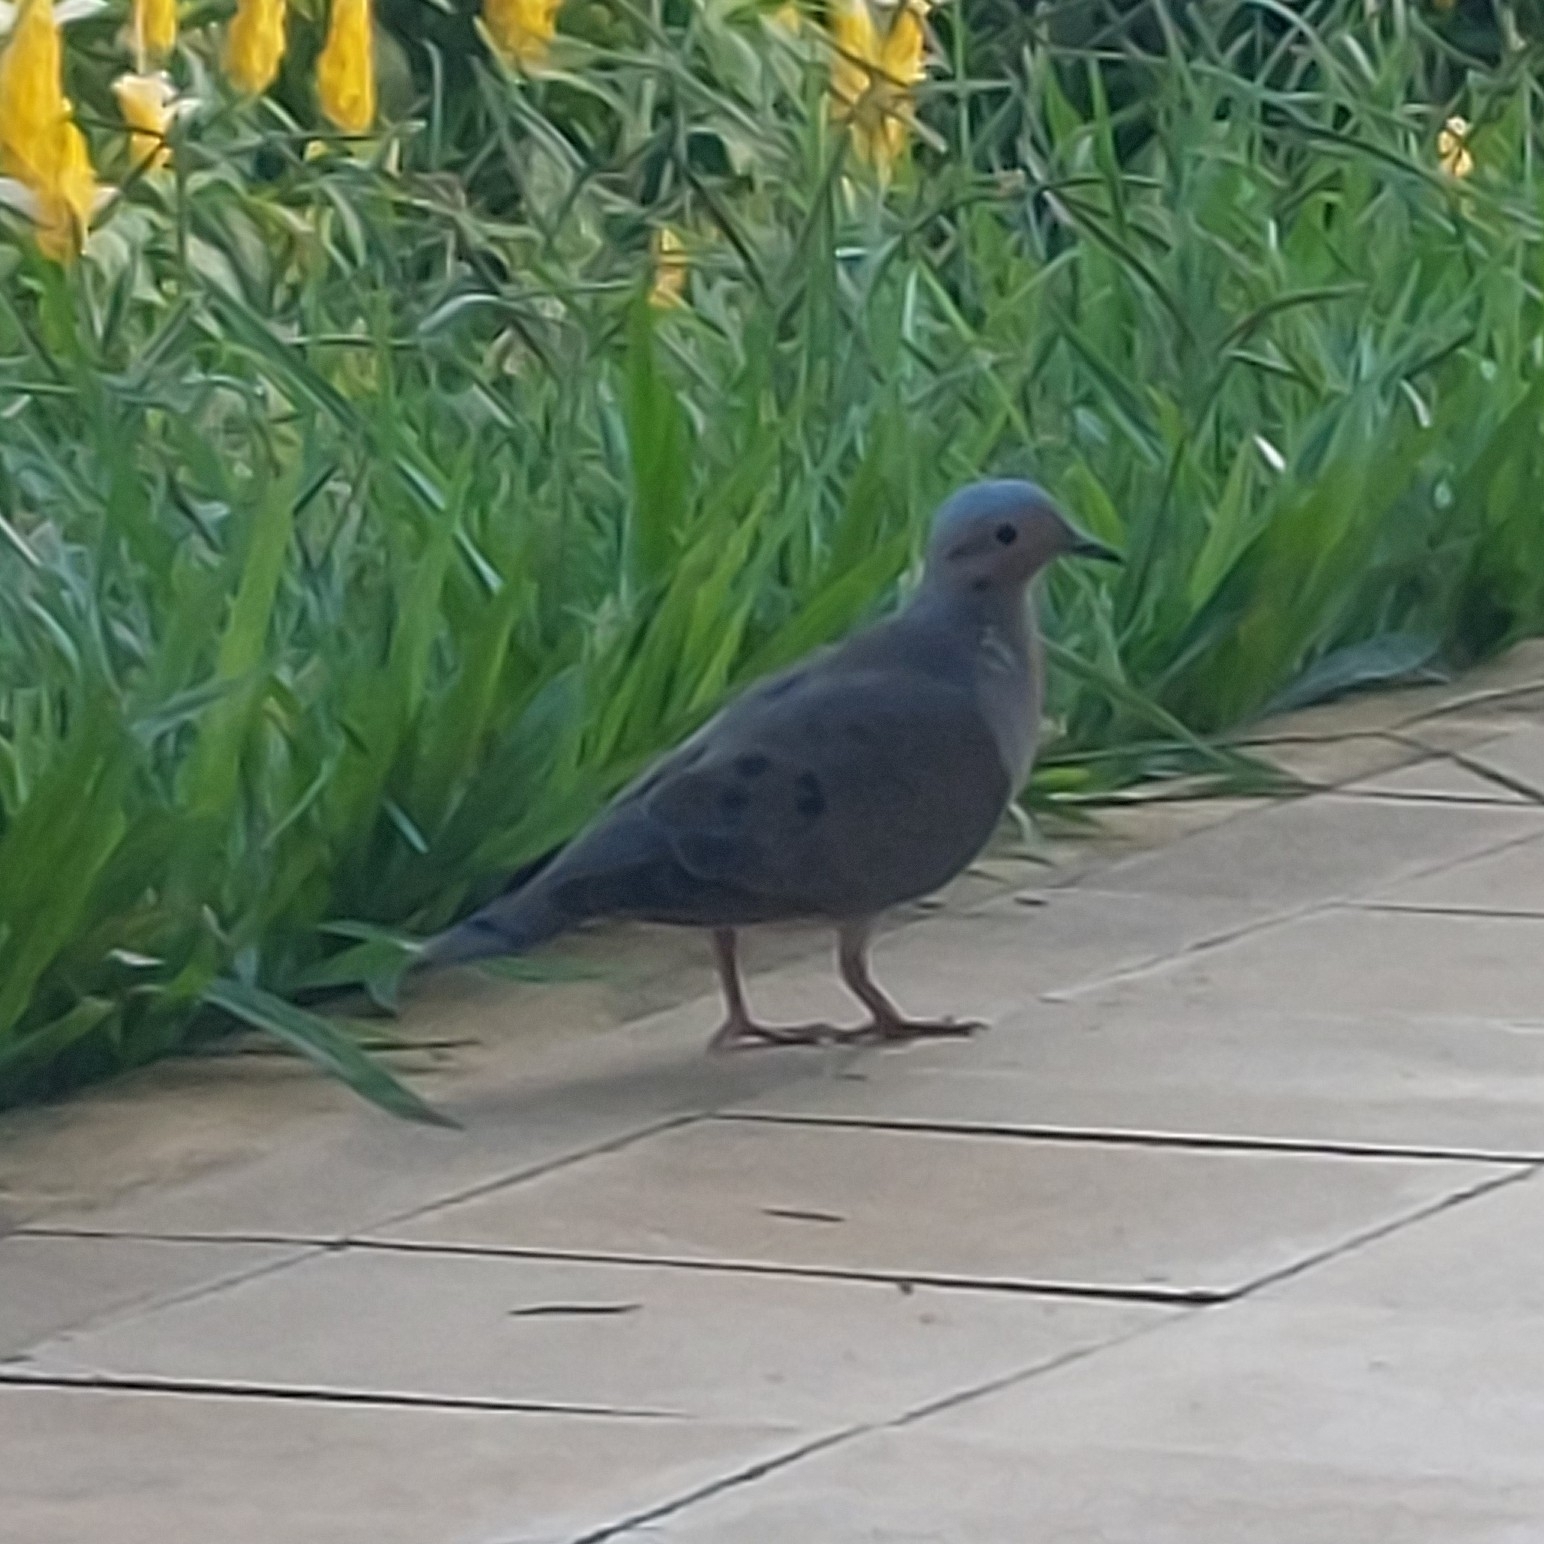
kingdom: Animalia
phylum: Chordata
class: Aves
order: Columbiformes
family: Columbidae
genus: Zenaida
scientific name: Zenaida auriculata
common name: Eared dove
